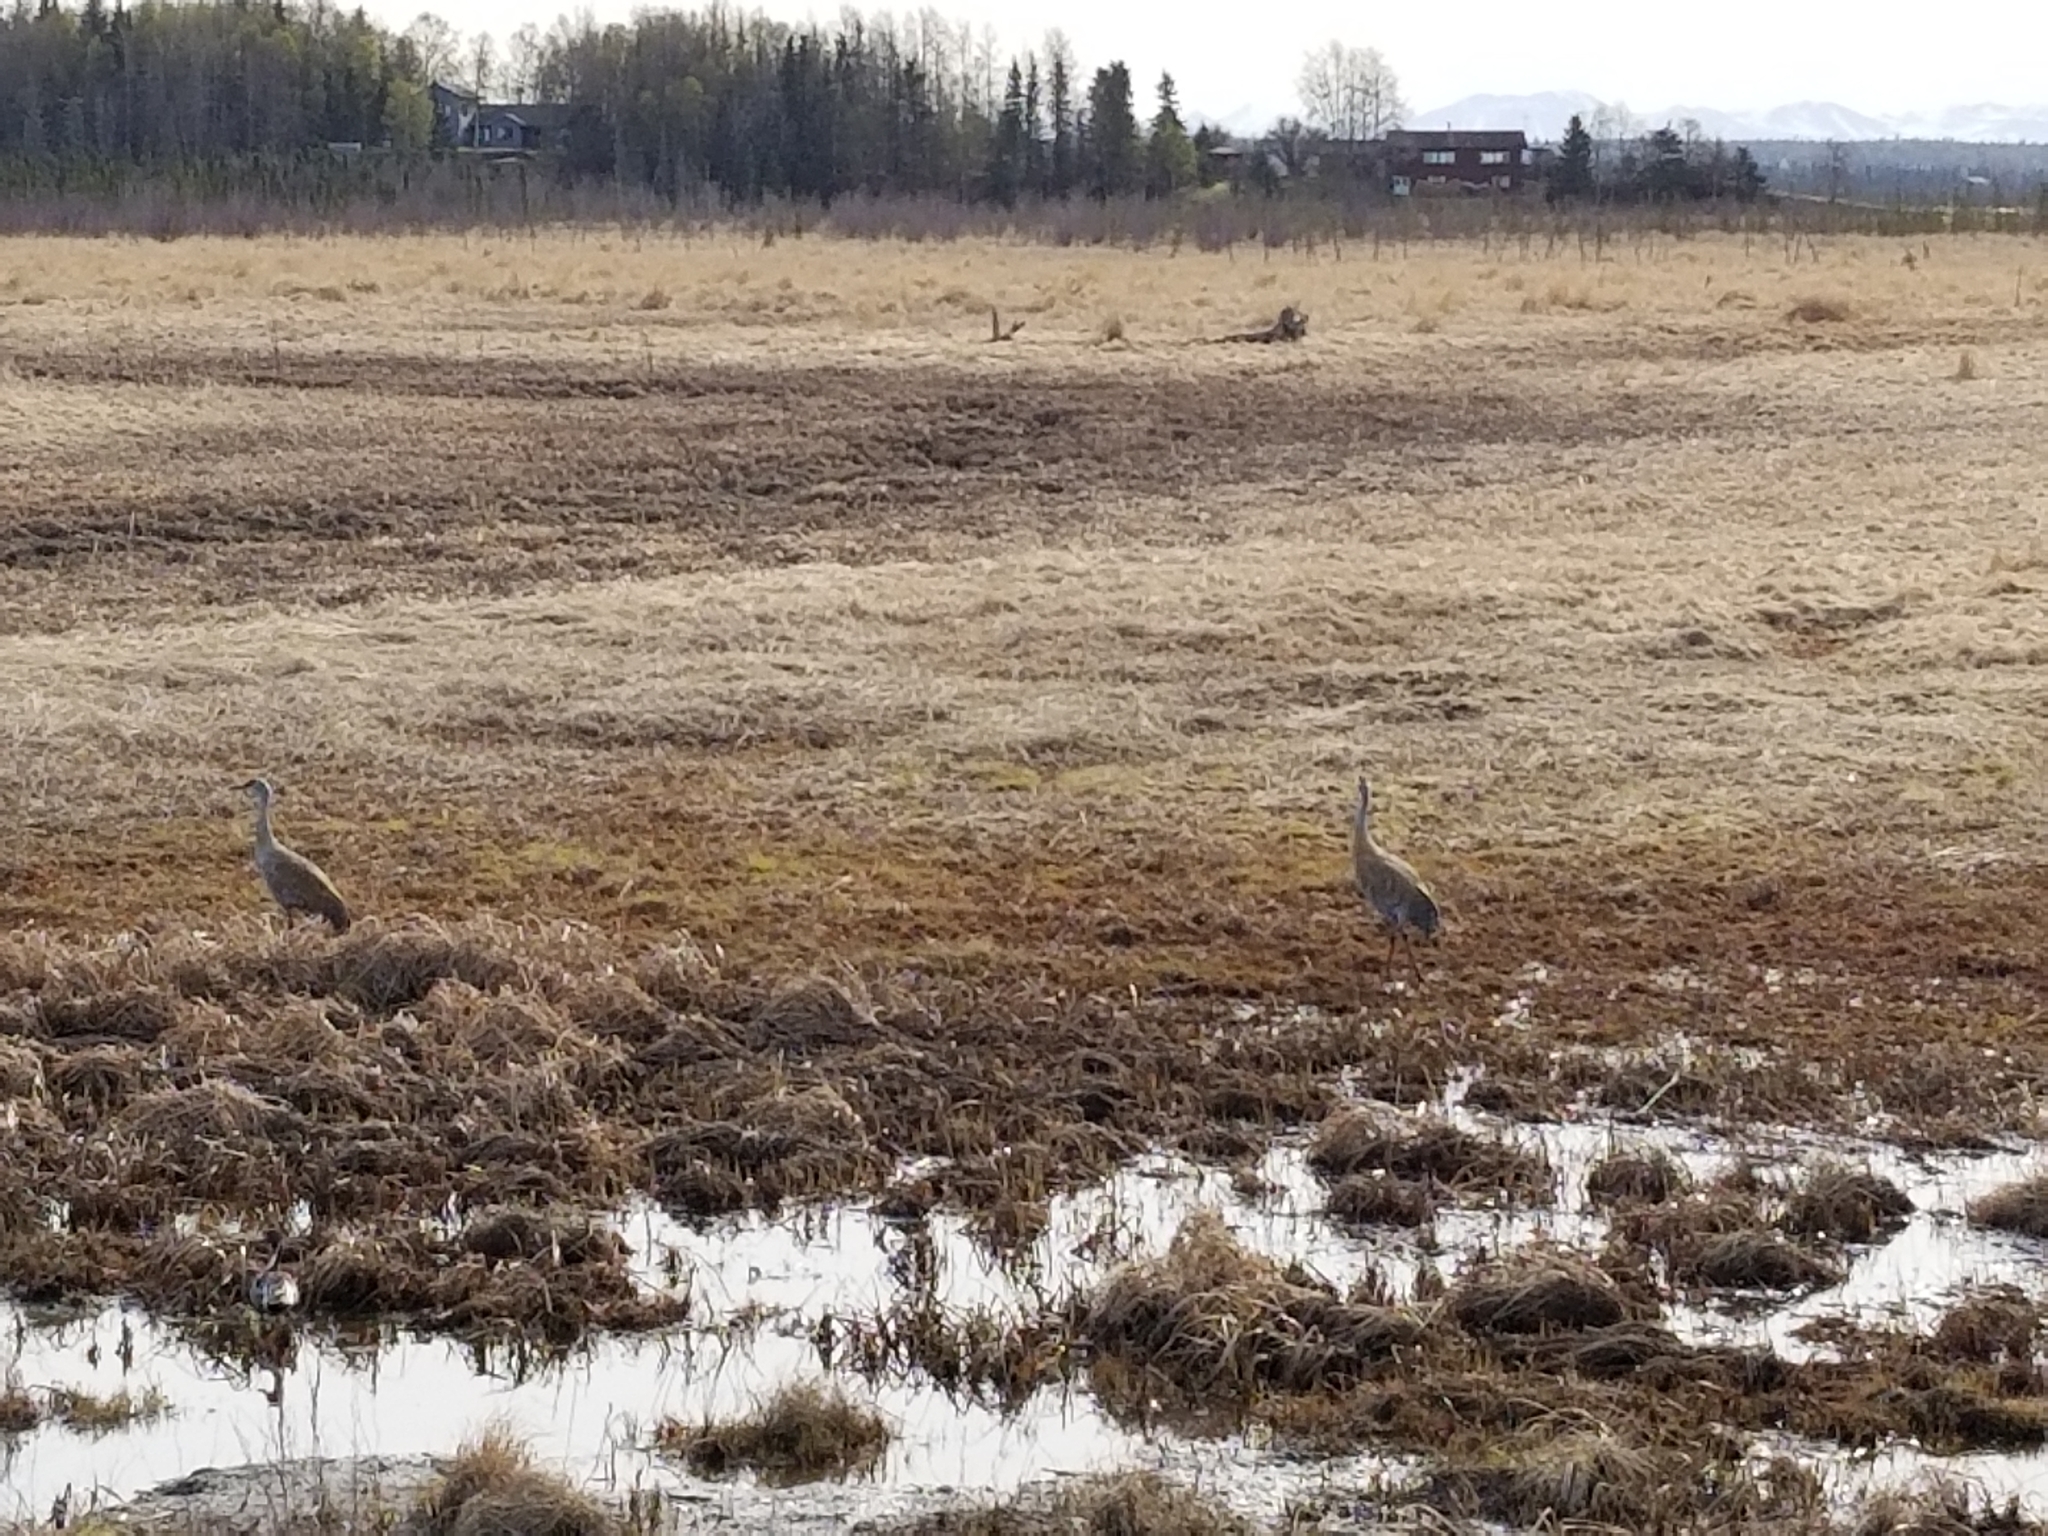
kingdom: Animalia
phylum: Chordata
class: Aves
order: Gruiformes
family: Gruidae
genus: Grus
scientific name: Grus canadensis
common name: Sandhill crane
